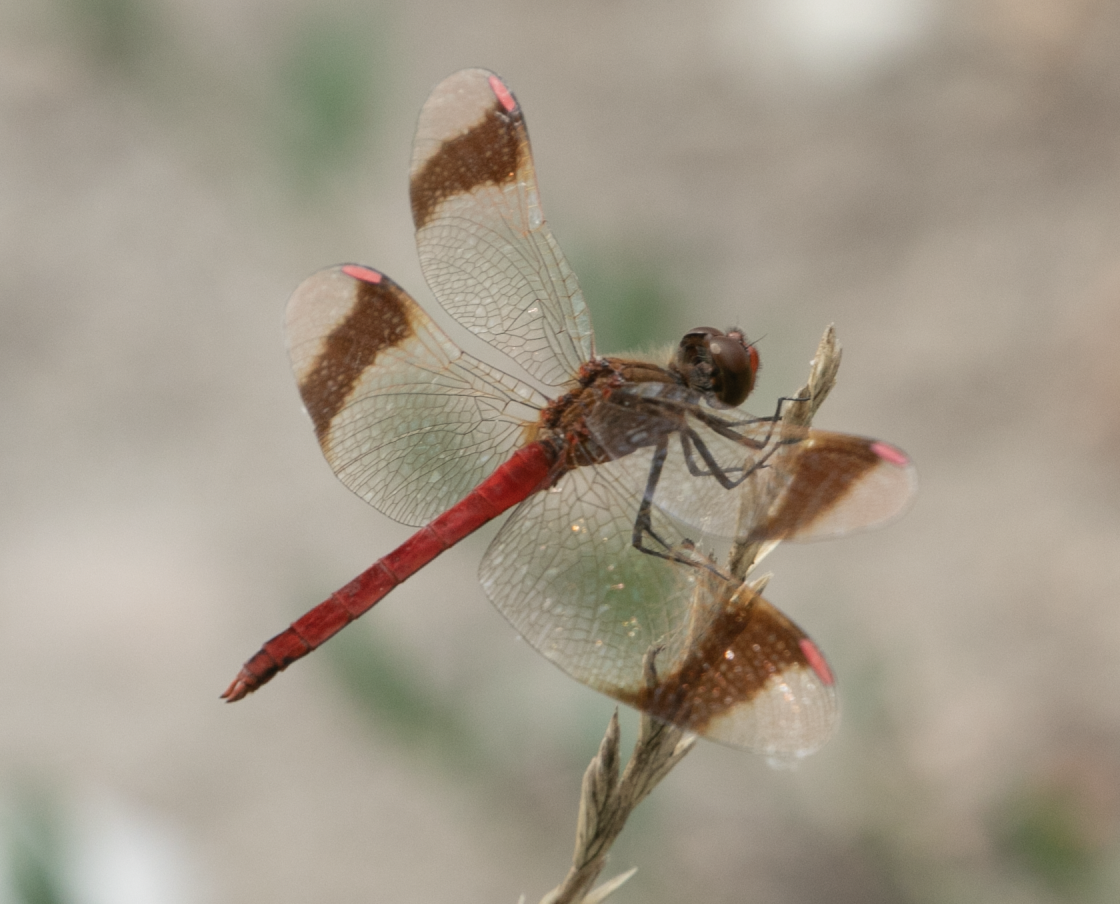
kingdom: Animalia
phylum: Arthropoda
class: Insecta
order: Odonata
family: Libellulidae
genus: Sympetrum
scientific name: Sympetrum pedemontanum
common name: Banded darter
